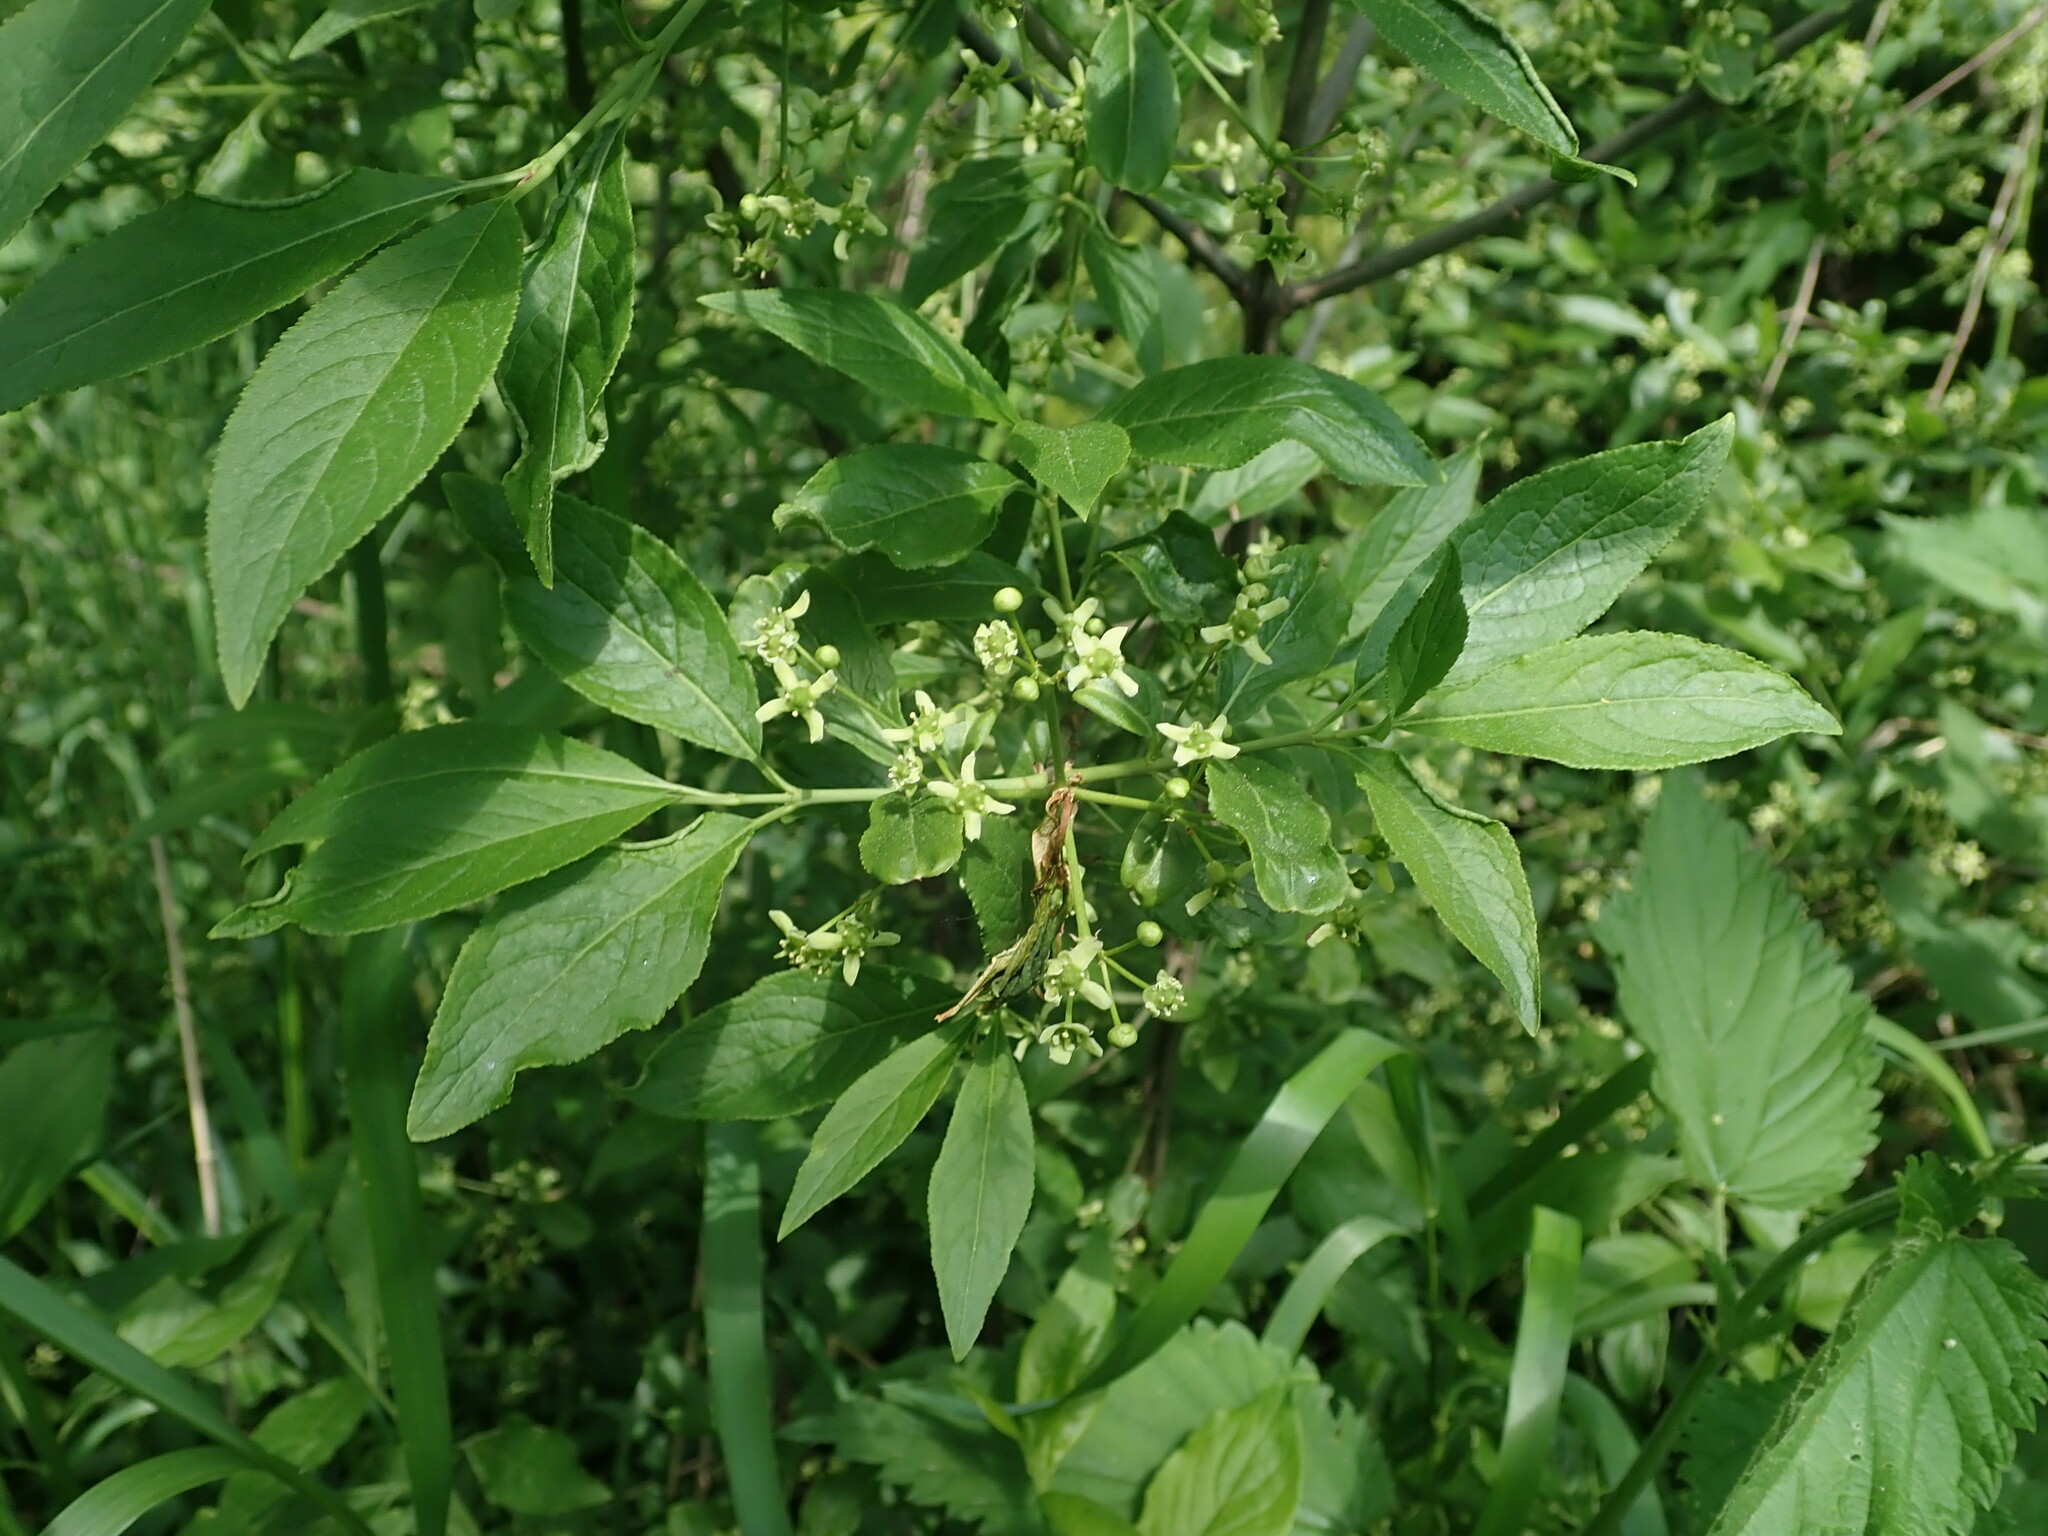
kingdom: Plantae
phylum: Tracheophyta
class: Magnoliopsida
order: Celastrales
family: Celastraceae
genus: Euonymus
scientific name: Euonymus europaeus
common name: Spindle
